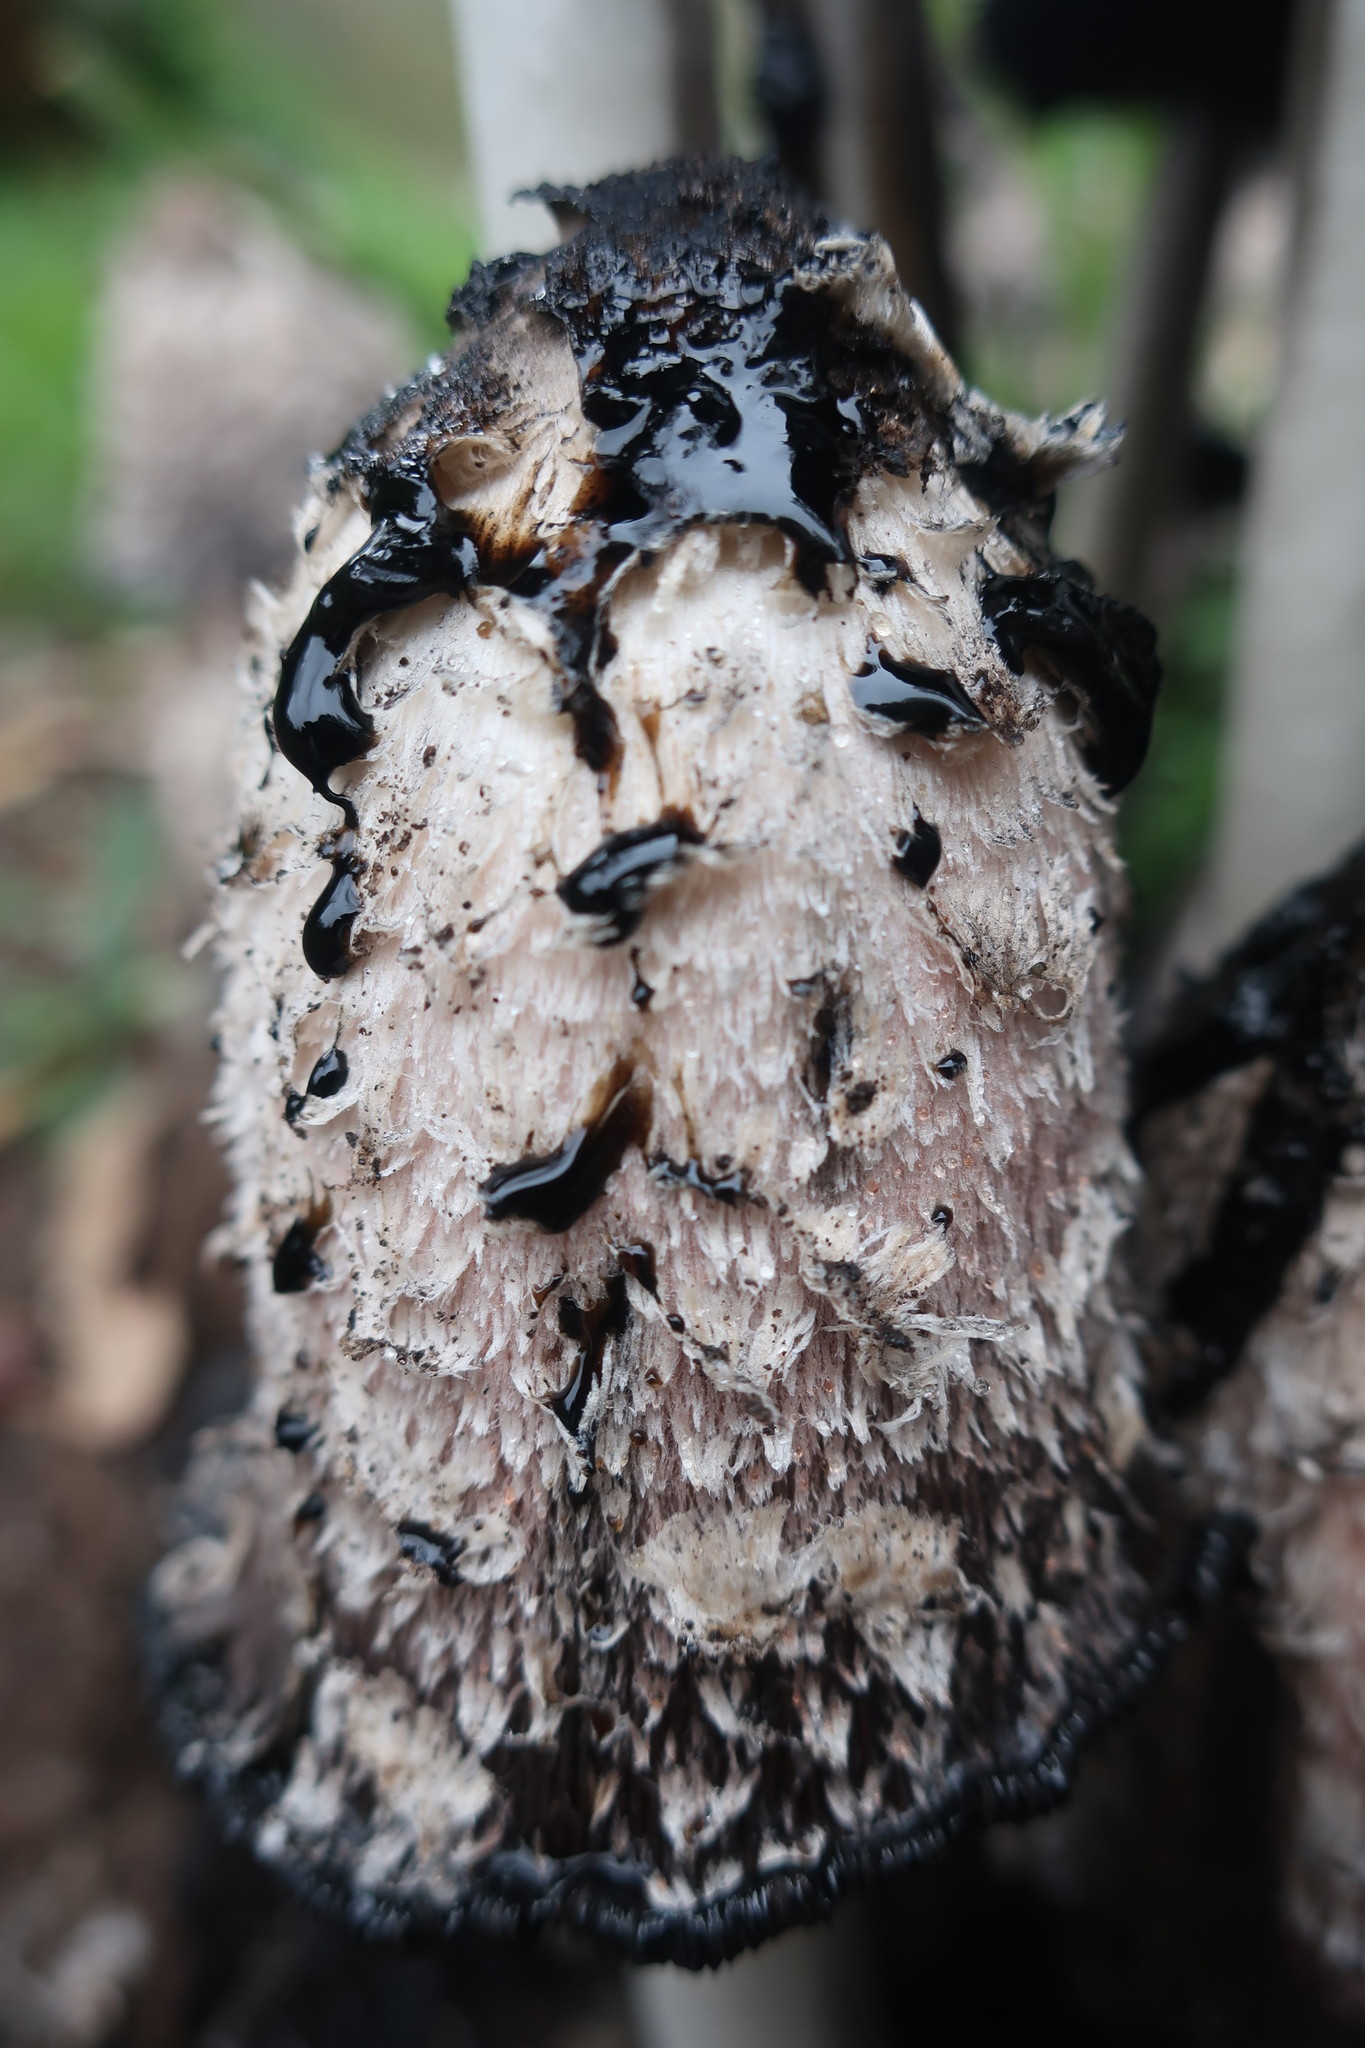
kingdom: Fungi
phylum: Basidiomycota
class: Agaricomycetes
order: Agaricales
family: Agaricaceae
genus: Coprinus
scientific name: Coprinus comatus
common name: Lawyer's wig
